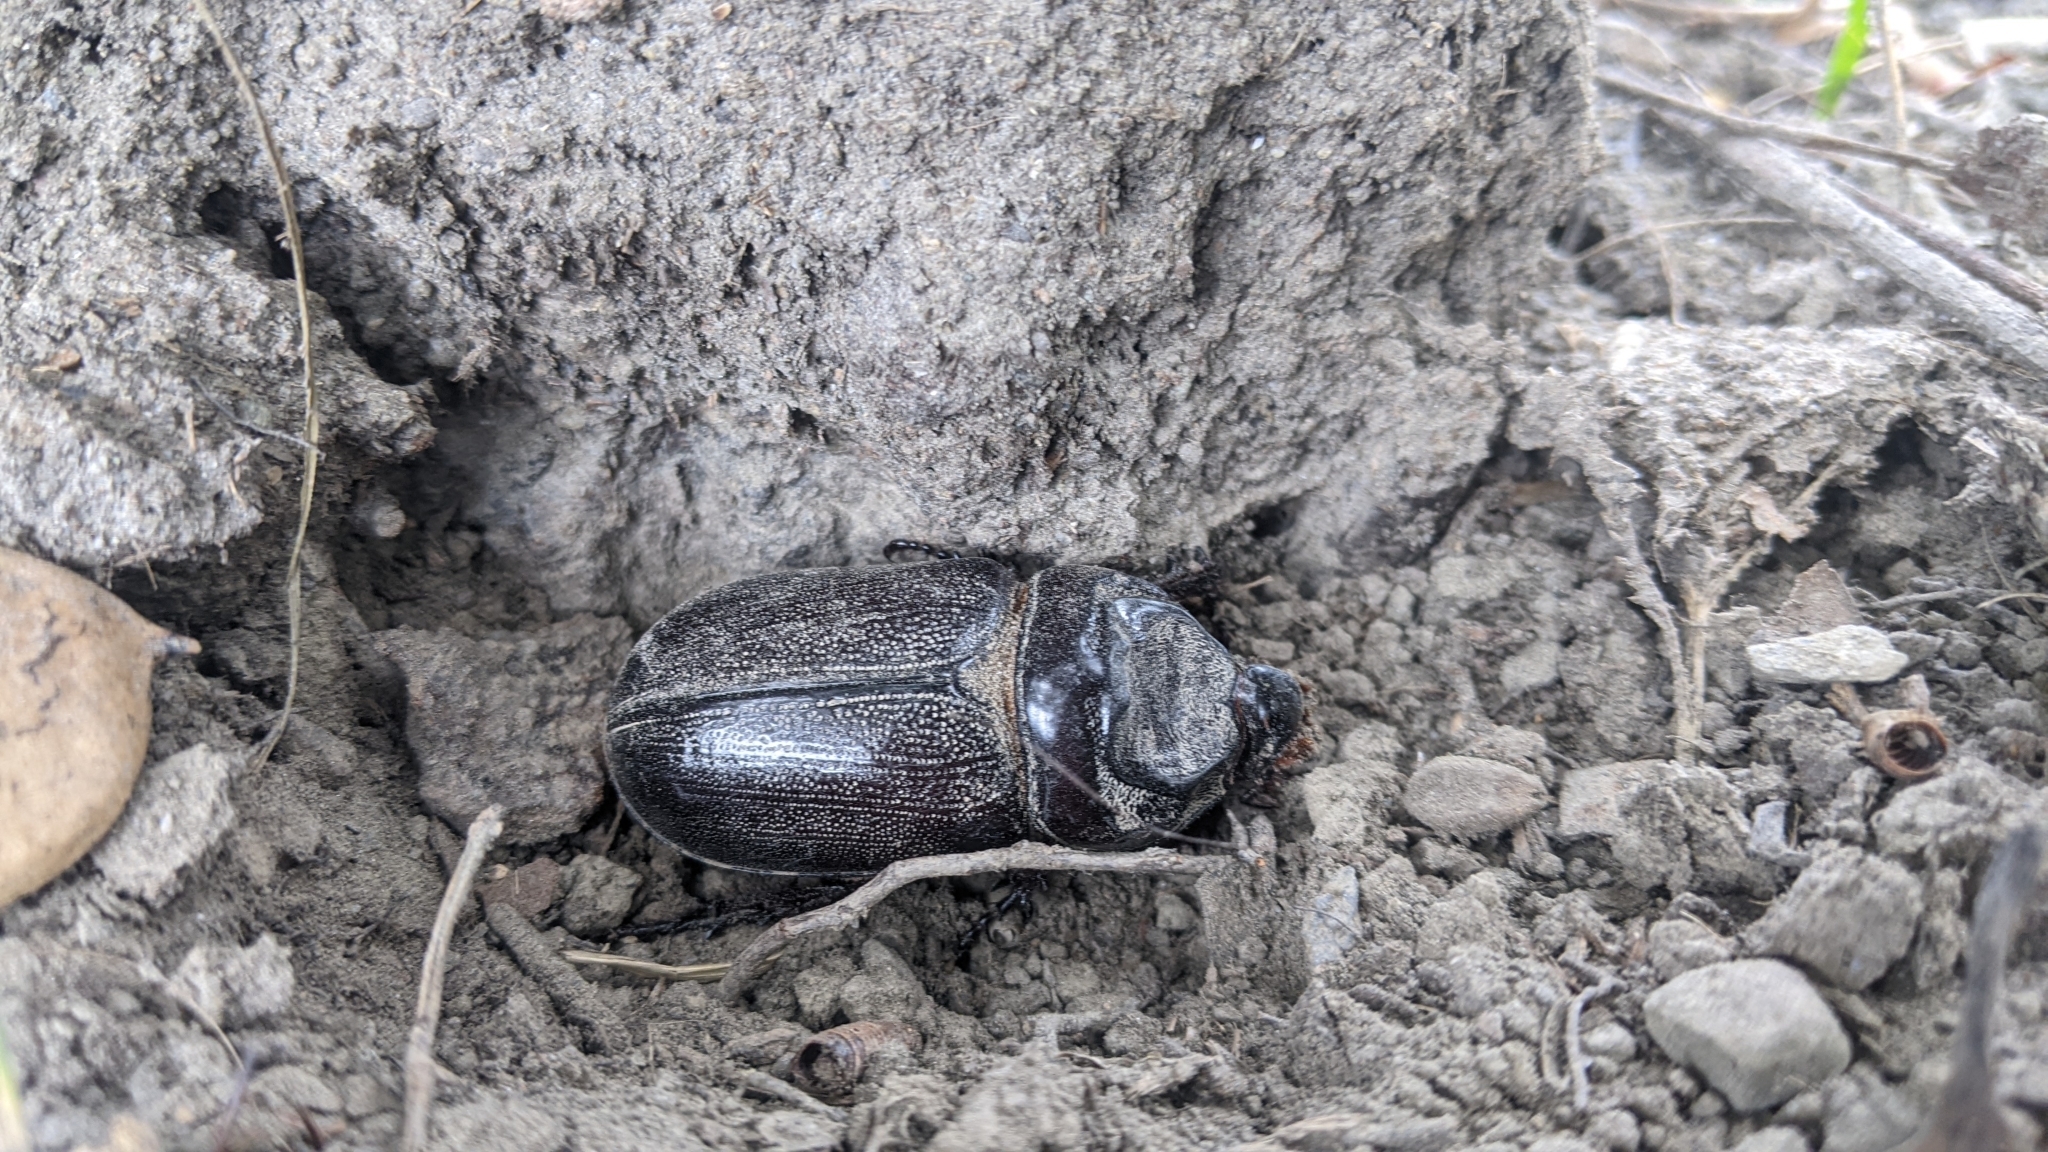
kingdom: Animalia
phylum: Arthropoda
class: Insecta
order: Coleoptera
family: Scarabaeidae
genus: Oryctes
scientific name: Oryctes rhinoceros
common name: Coconut rhinoceros beetle
